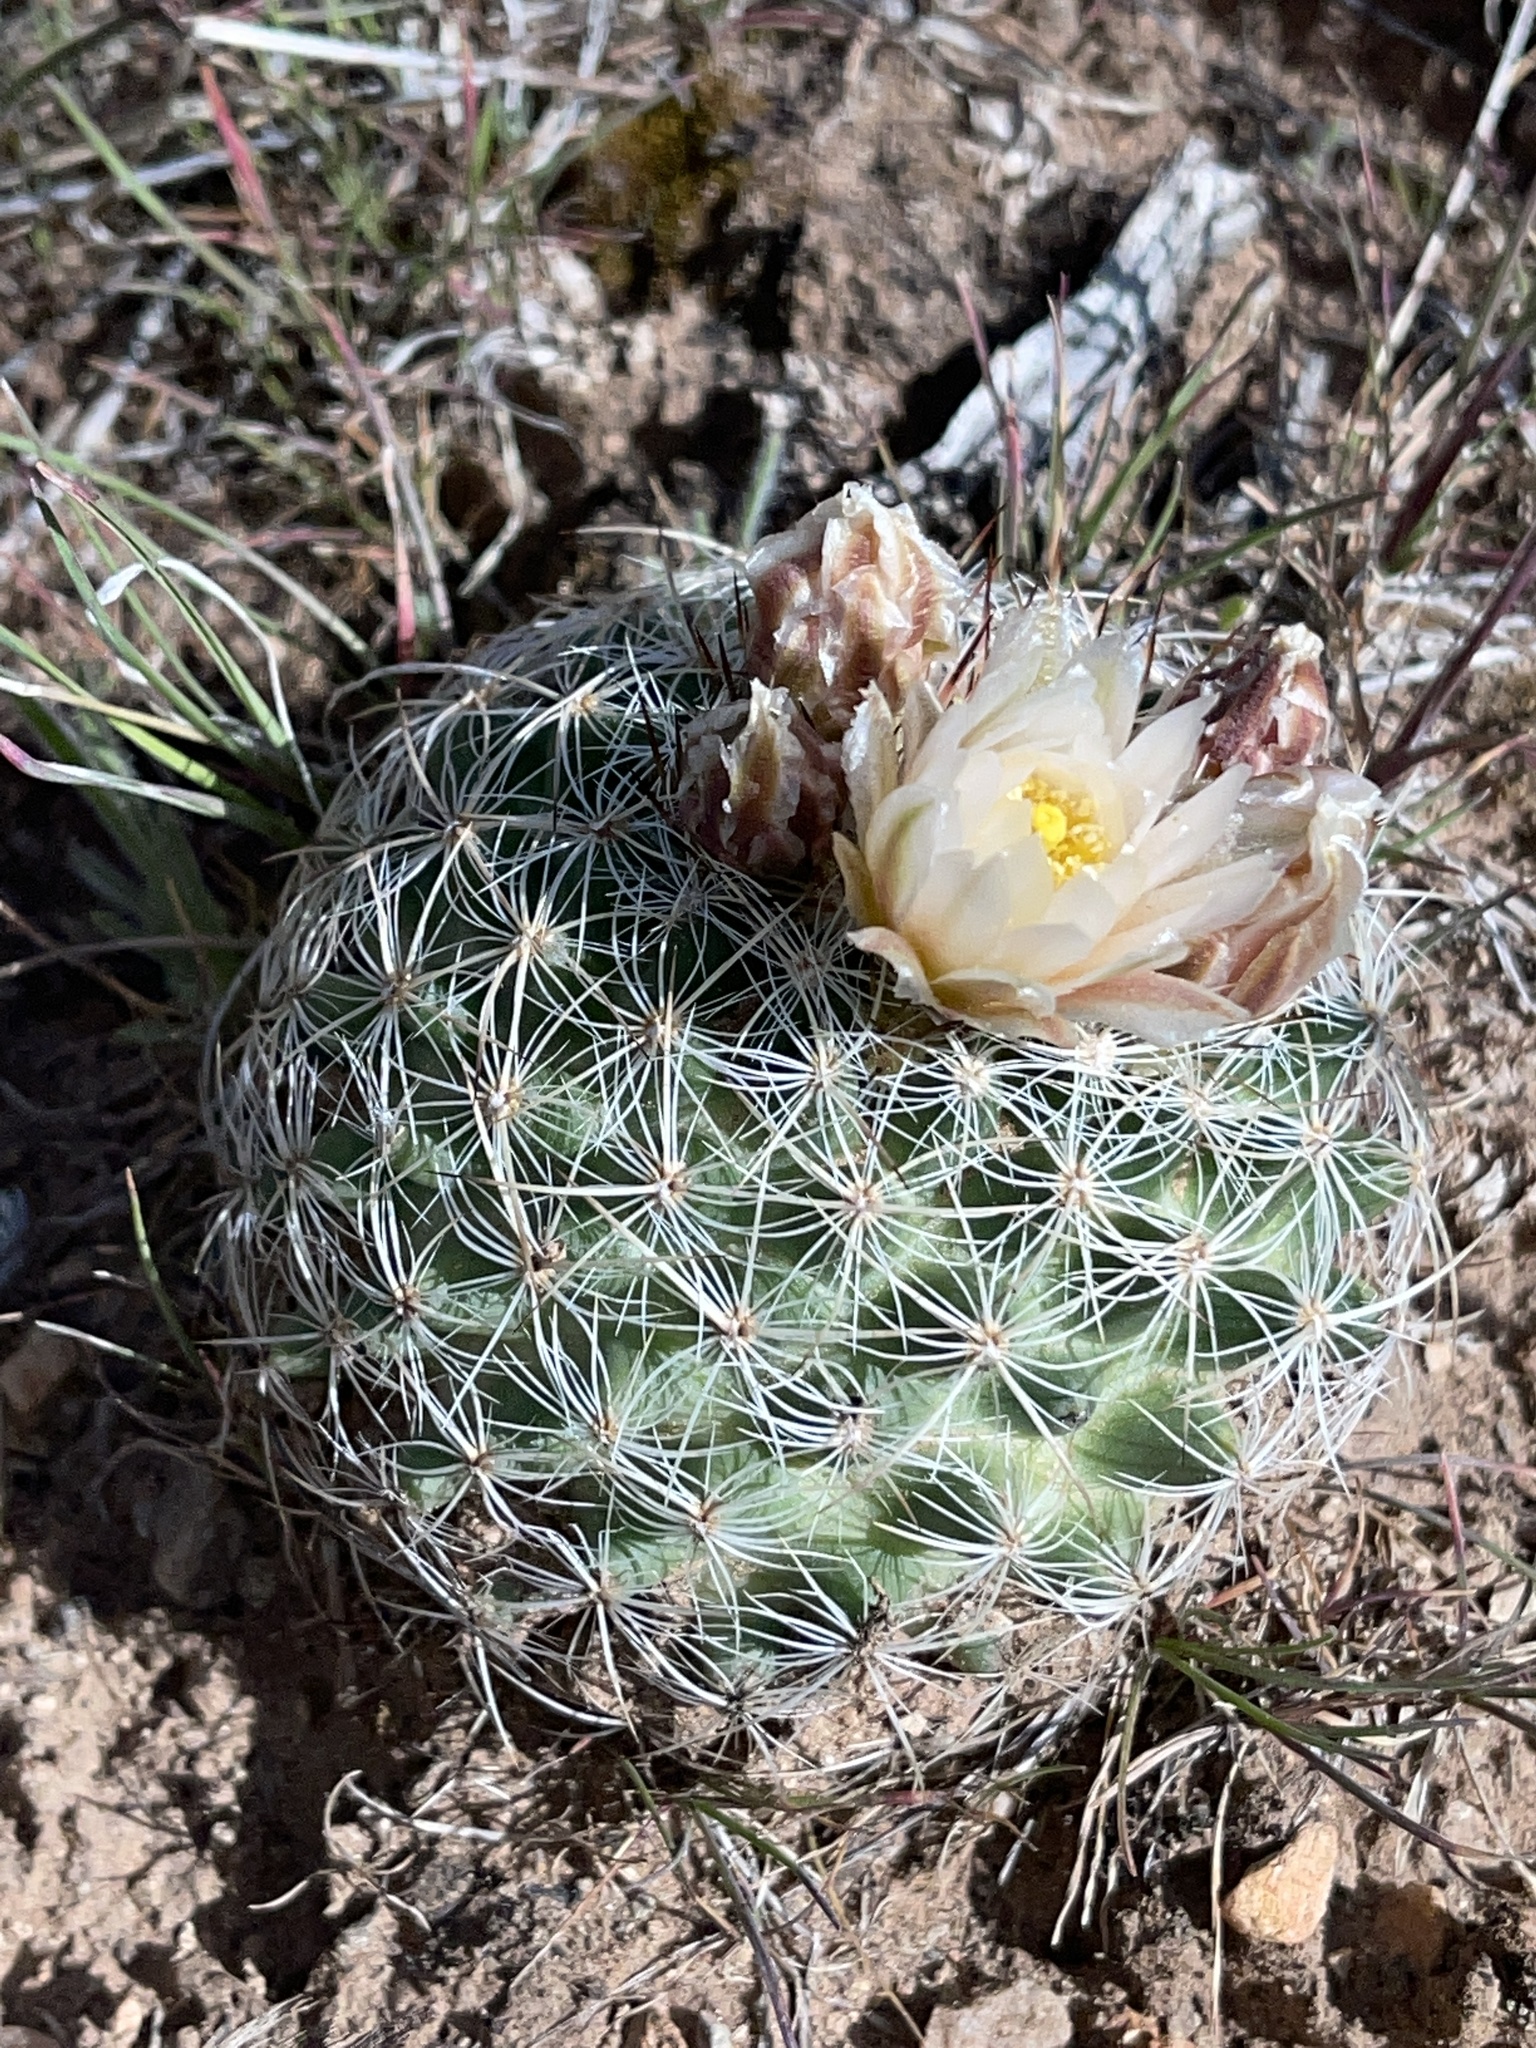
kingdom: Plantae
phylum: Tracheophyta
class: Magnoliopsida
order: Caryophyllales
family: Cactaceae
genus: Pediocactus
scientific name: Pediocactus simpsonii
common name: Simpson's hedgehog cactus
